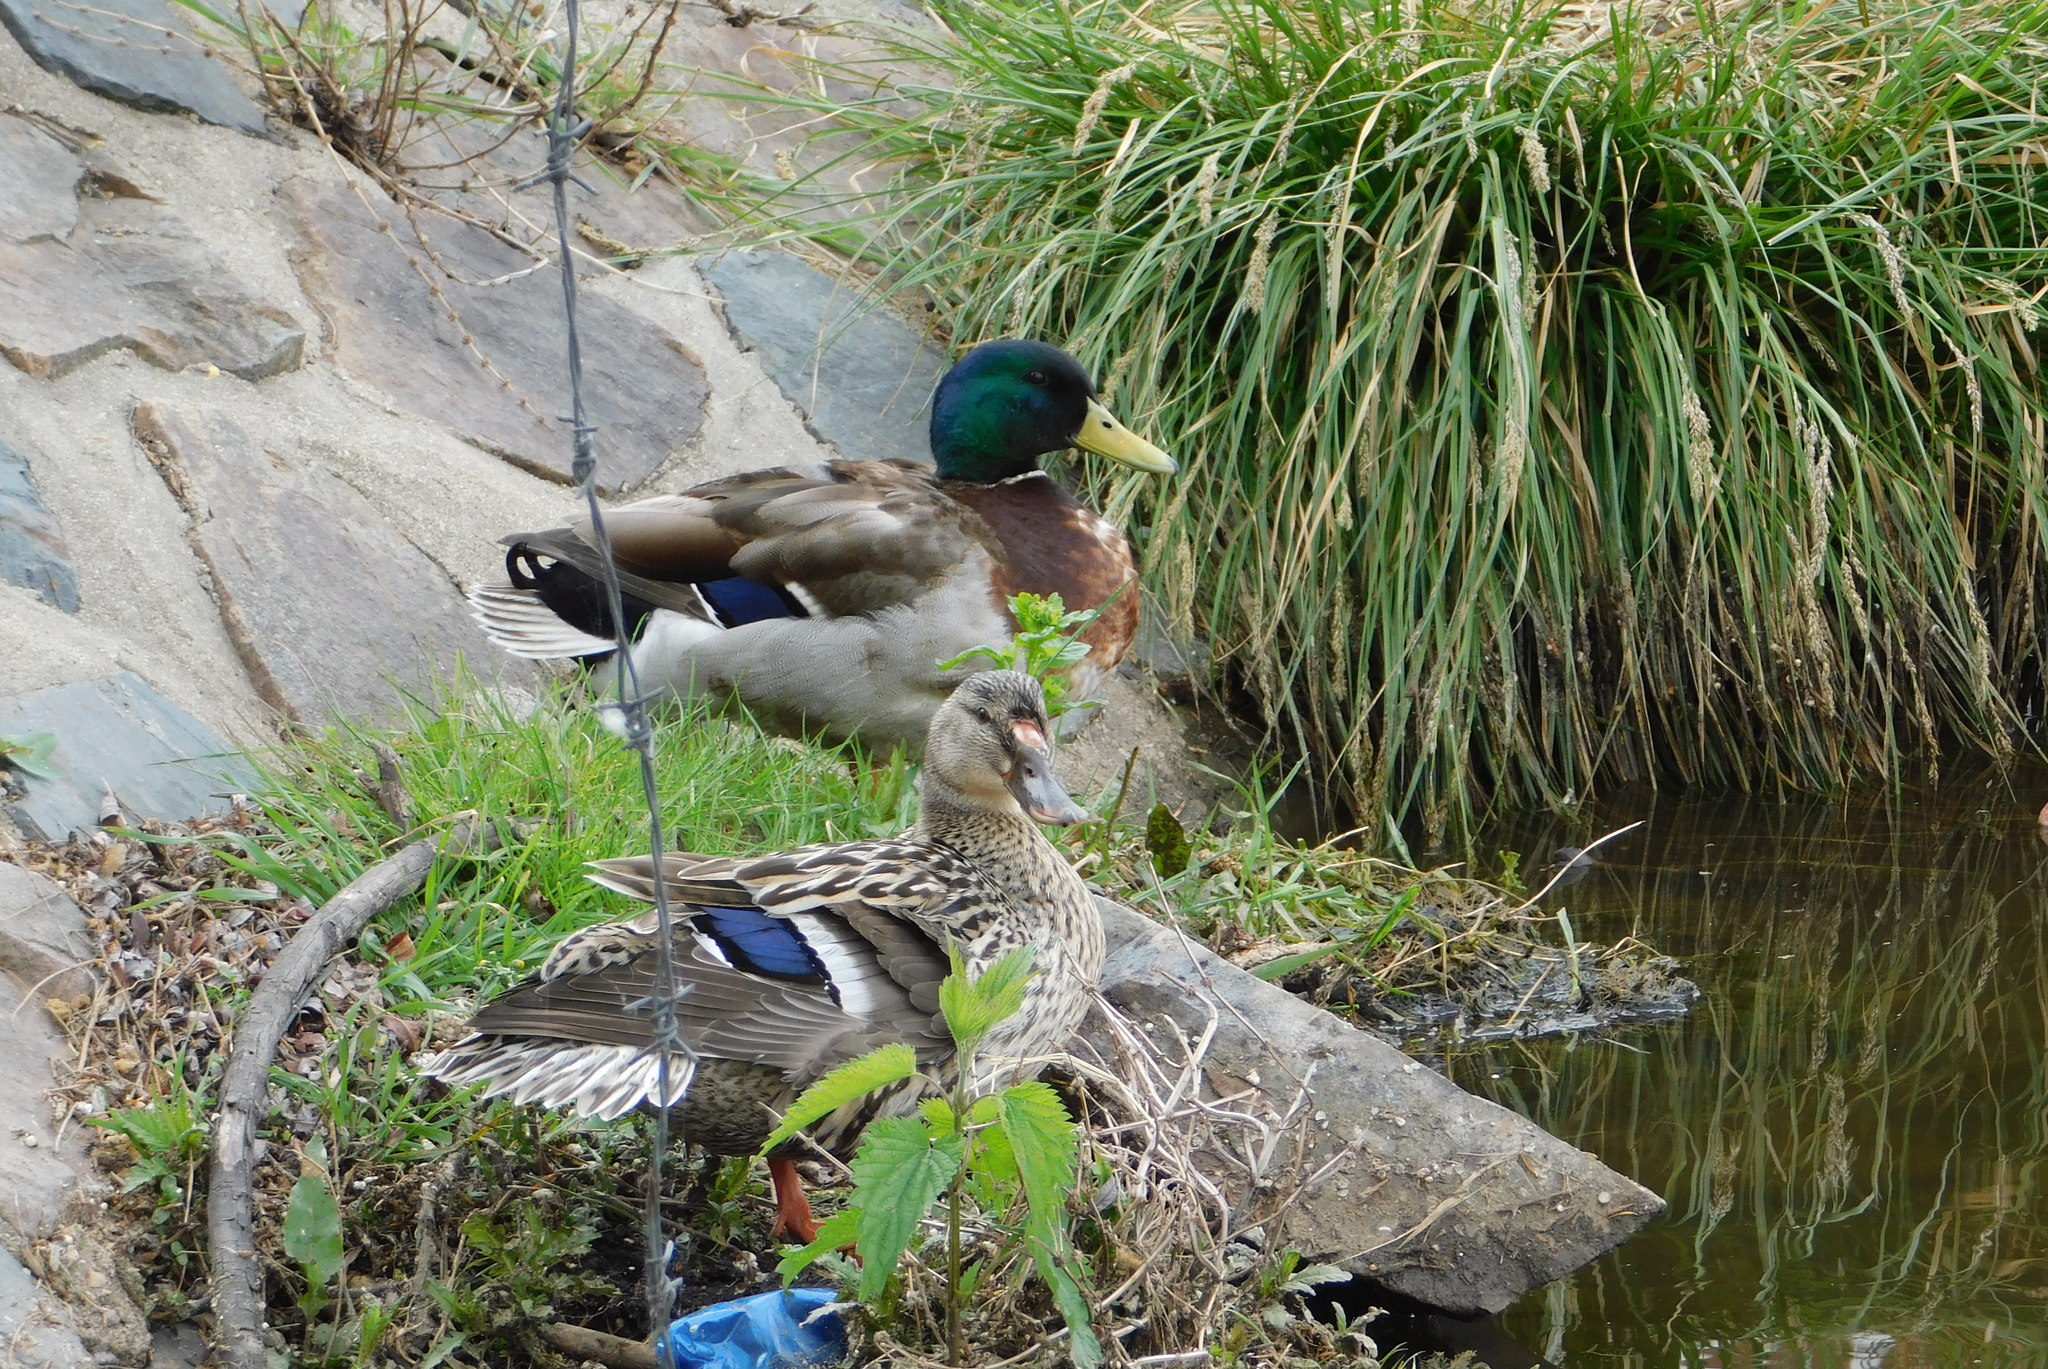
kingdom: Animalia
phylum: Chordata
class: Aves
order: Anseriformes
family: Anatidae
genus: Anas
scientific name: Anas platyrhynchos
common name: Mallard
